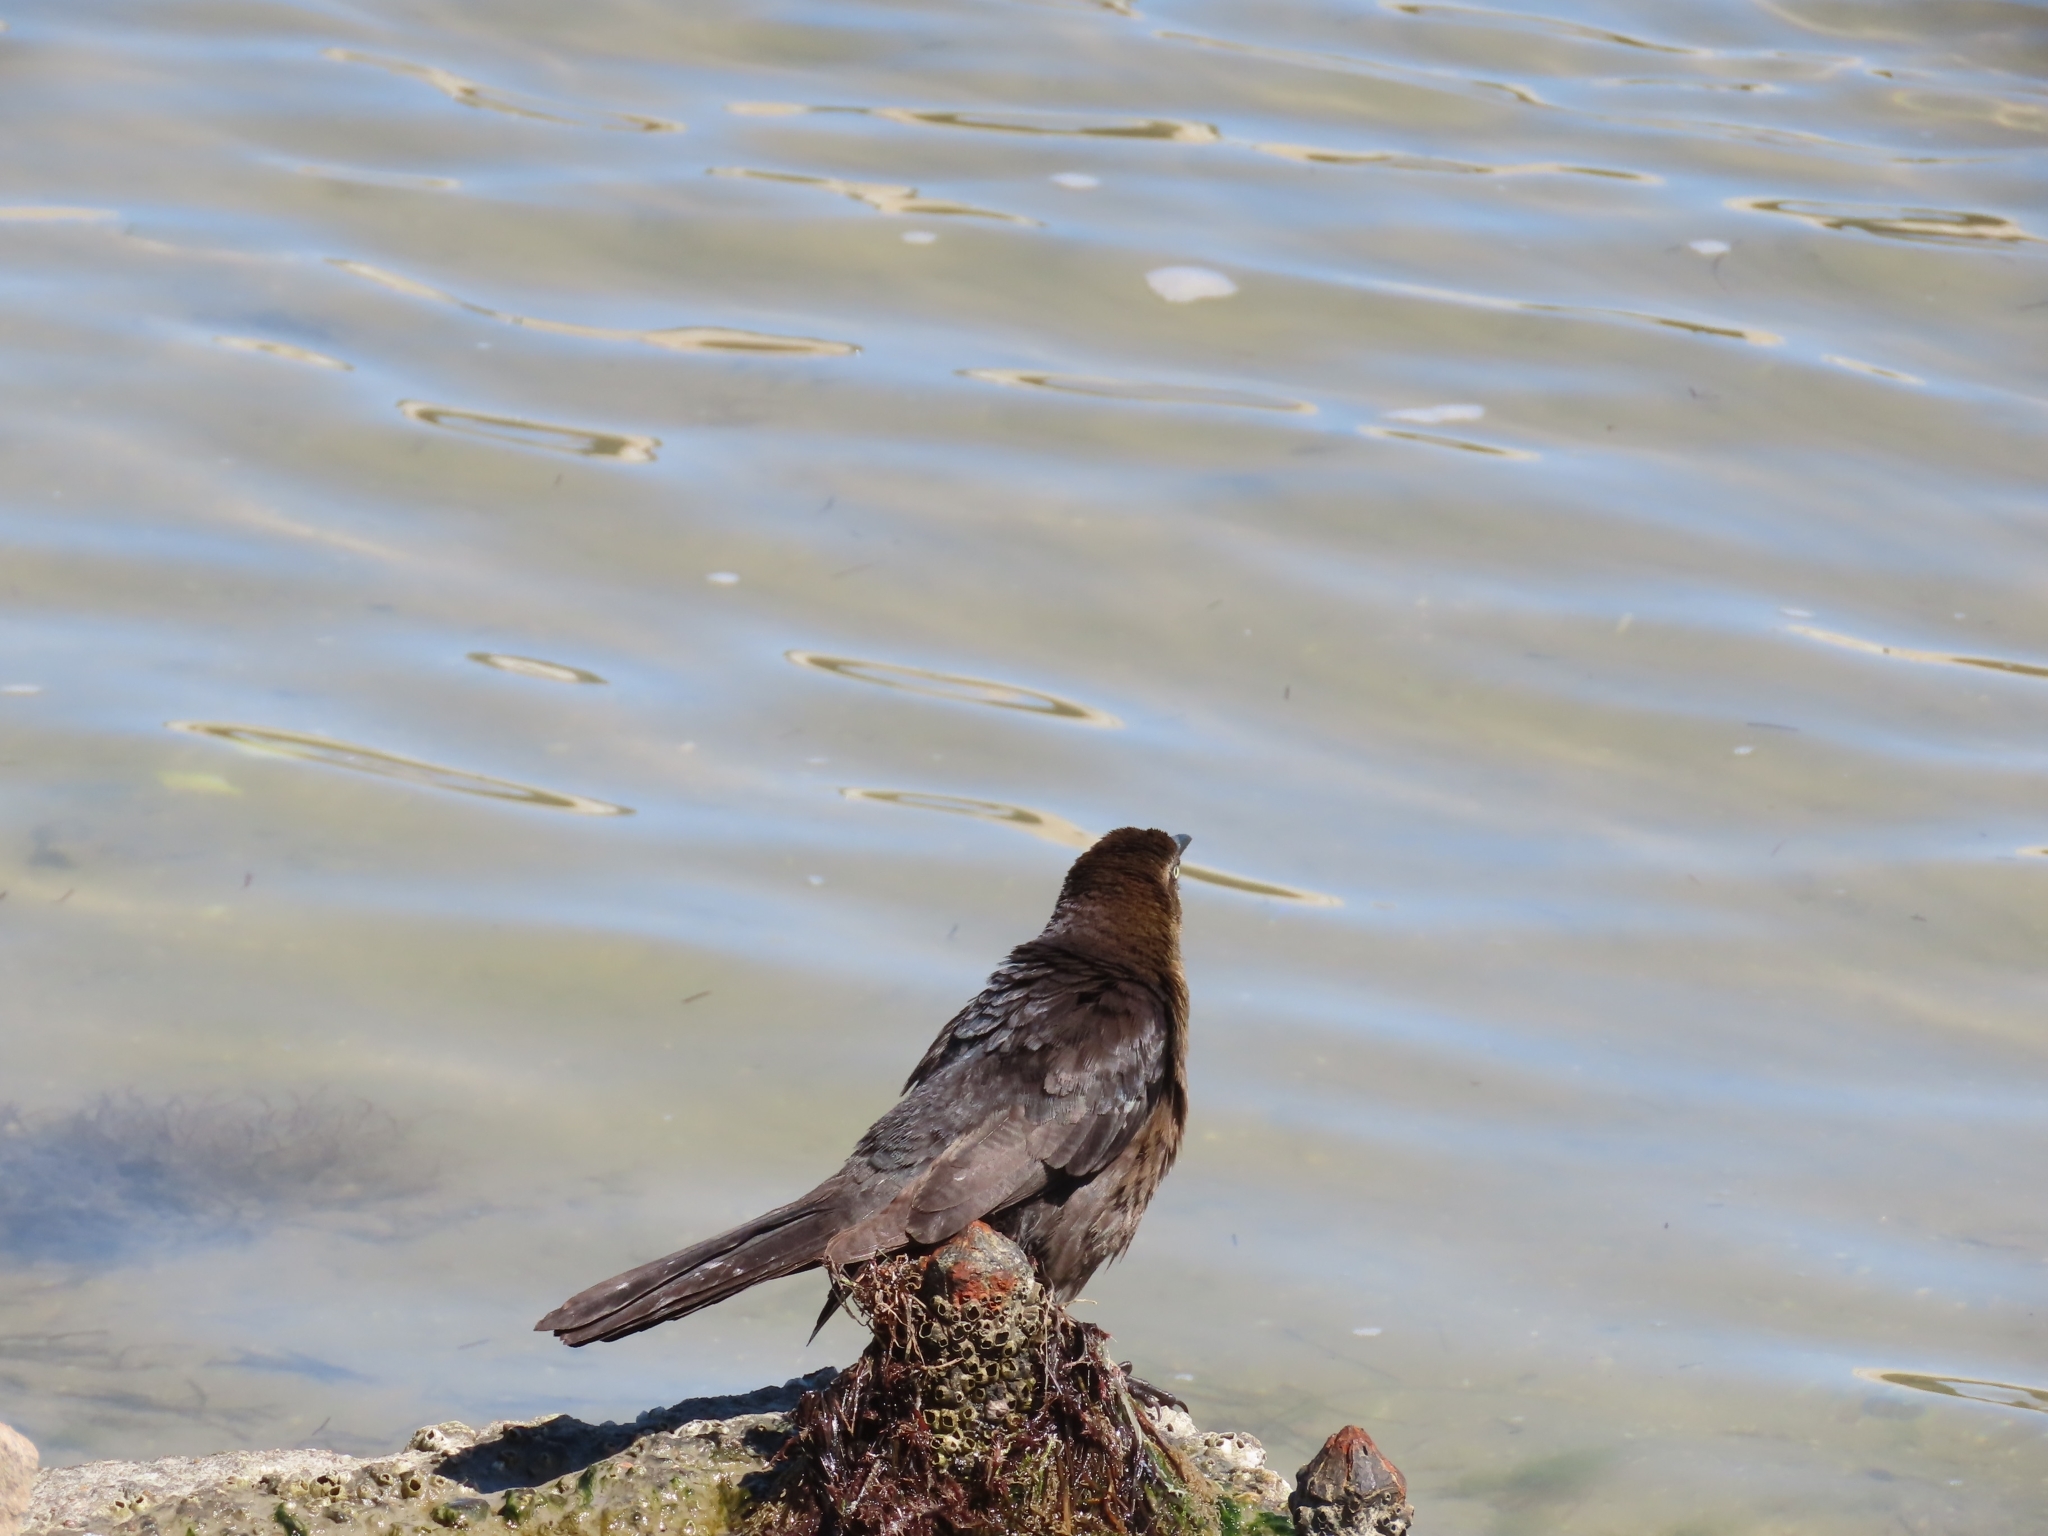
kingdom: Animalia
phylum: Chordata
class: Aves
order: Passeriformes
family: Icteridae
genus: Quiscalus
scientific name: Quiscalus mexicanus
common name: Great-tailed grackle
